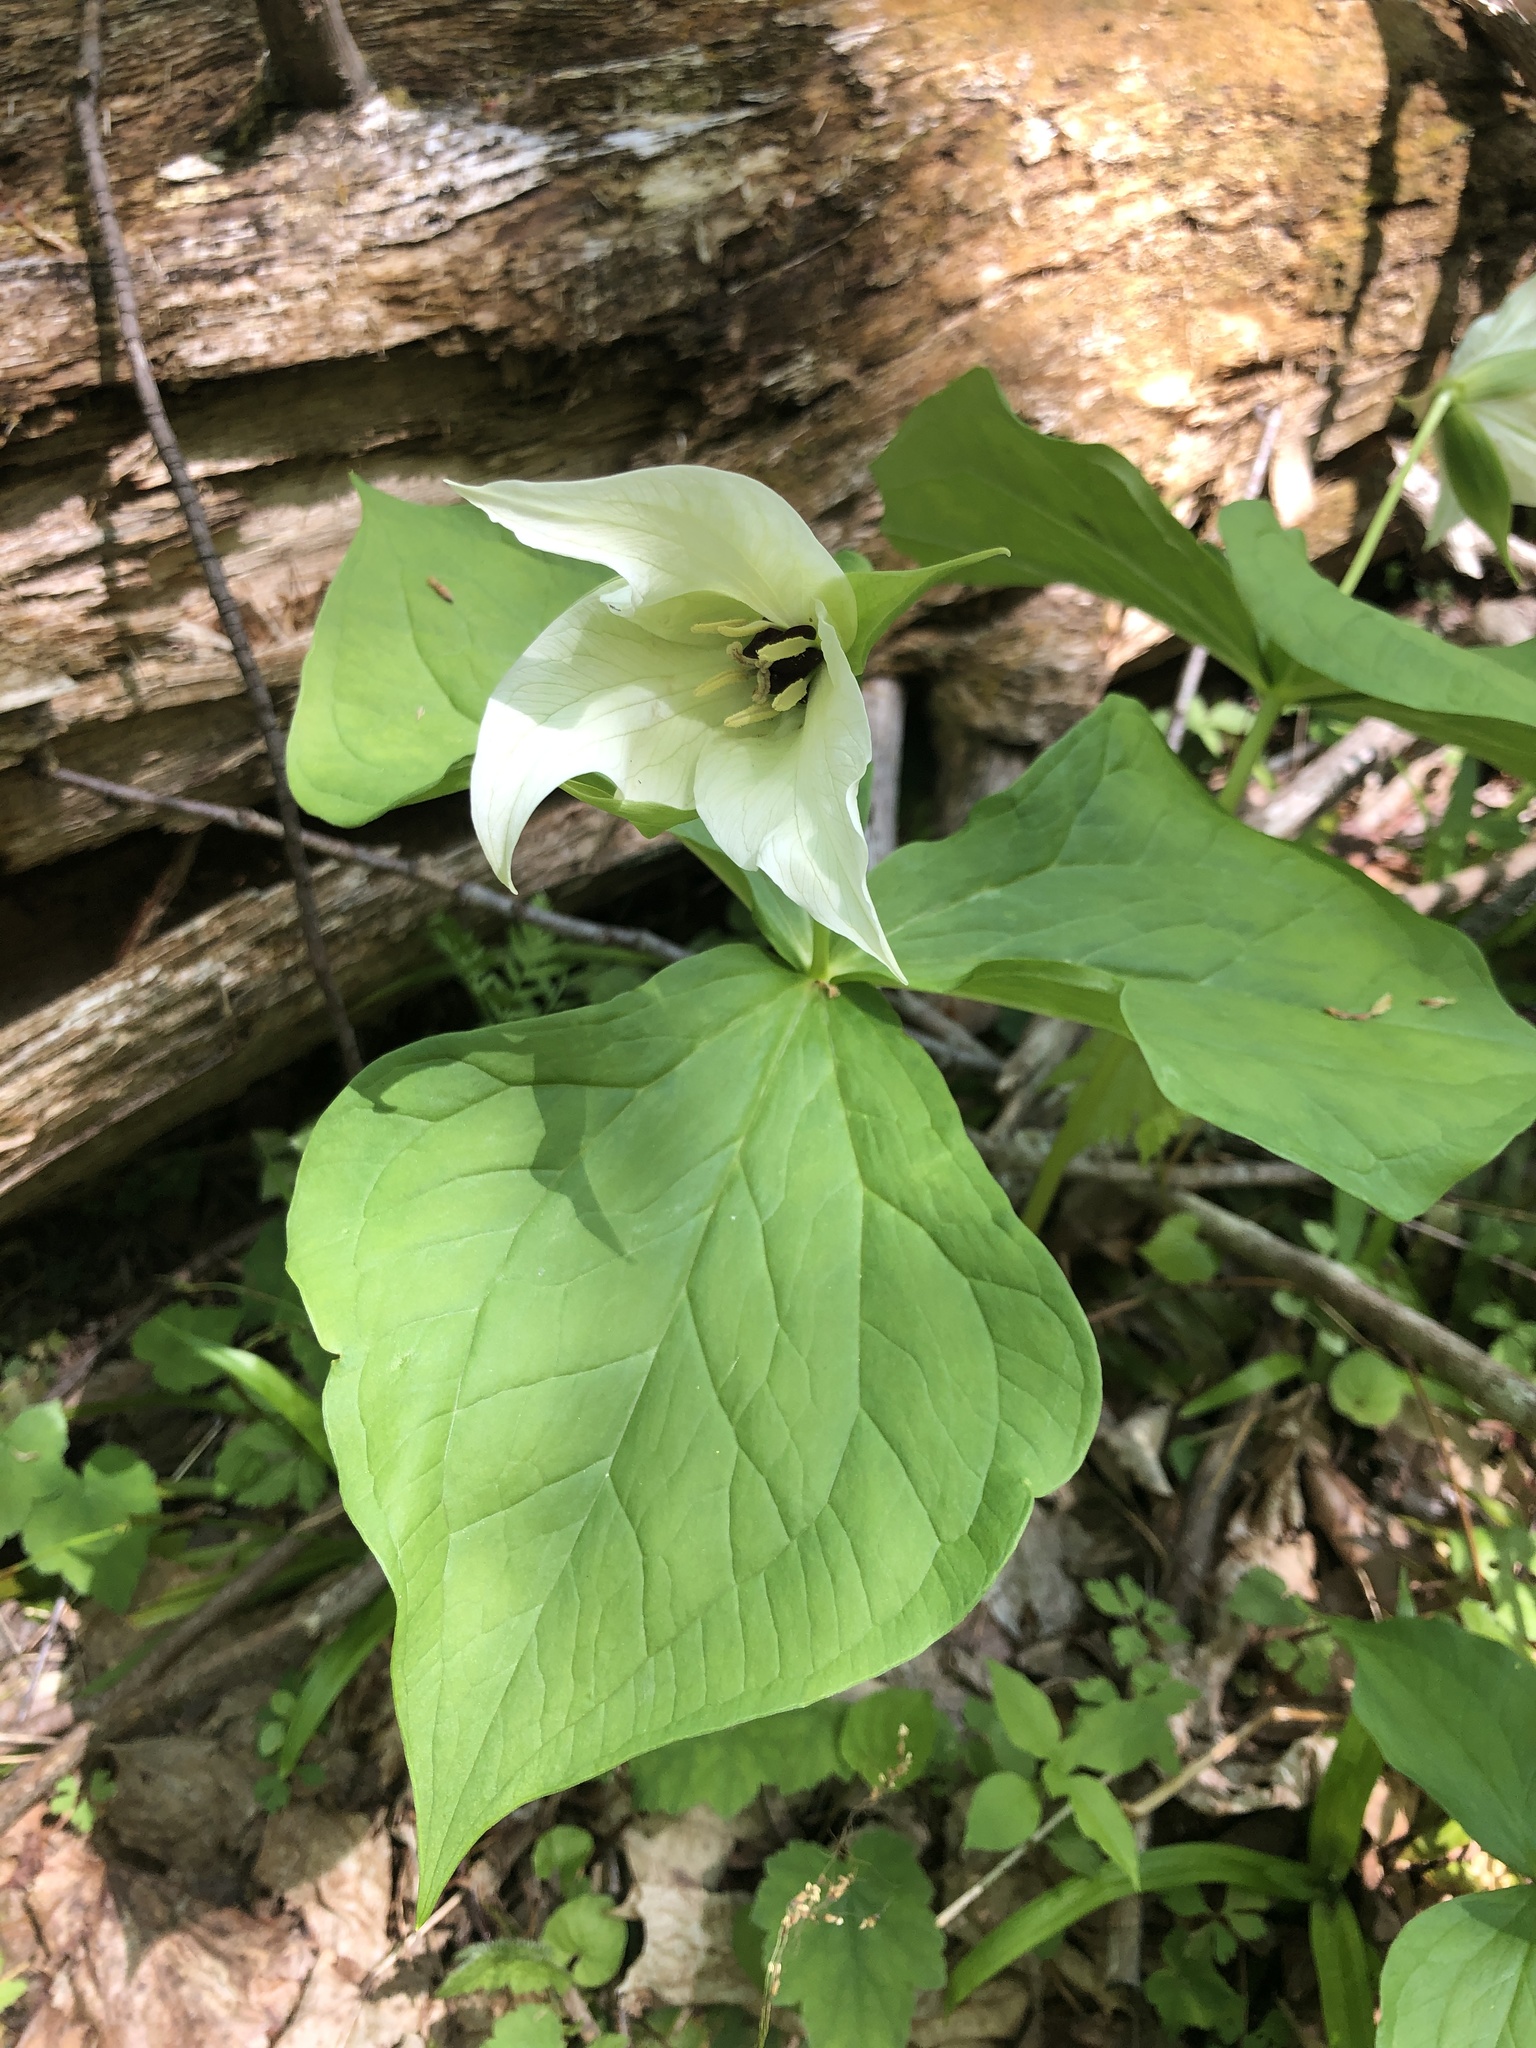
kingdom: Plantae
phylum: Tracheophyta
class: Liliopsida
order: Liliales
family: Melanthiaceae
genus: Trillium
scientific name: Trillium simile
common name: Confusing trillium
